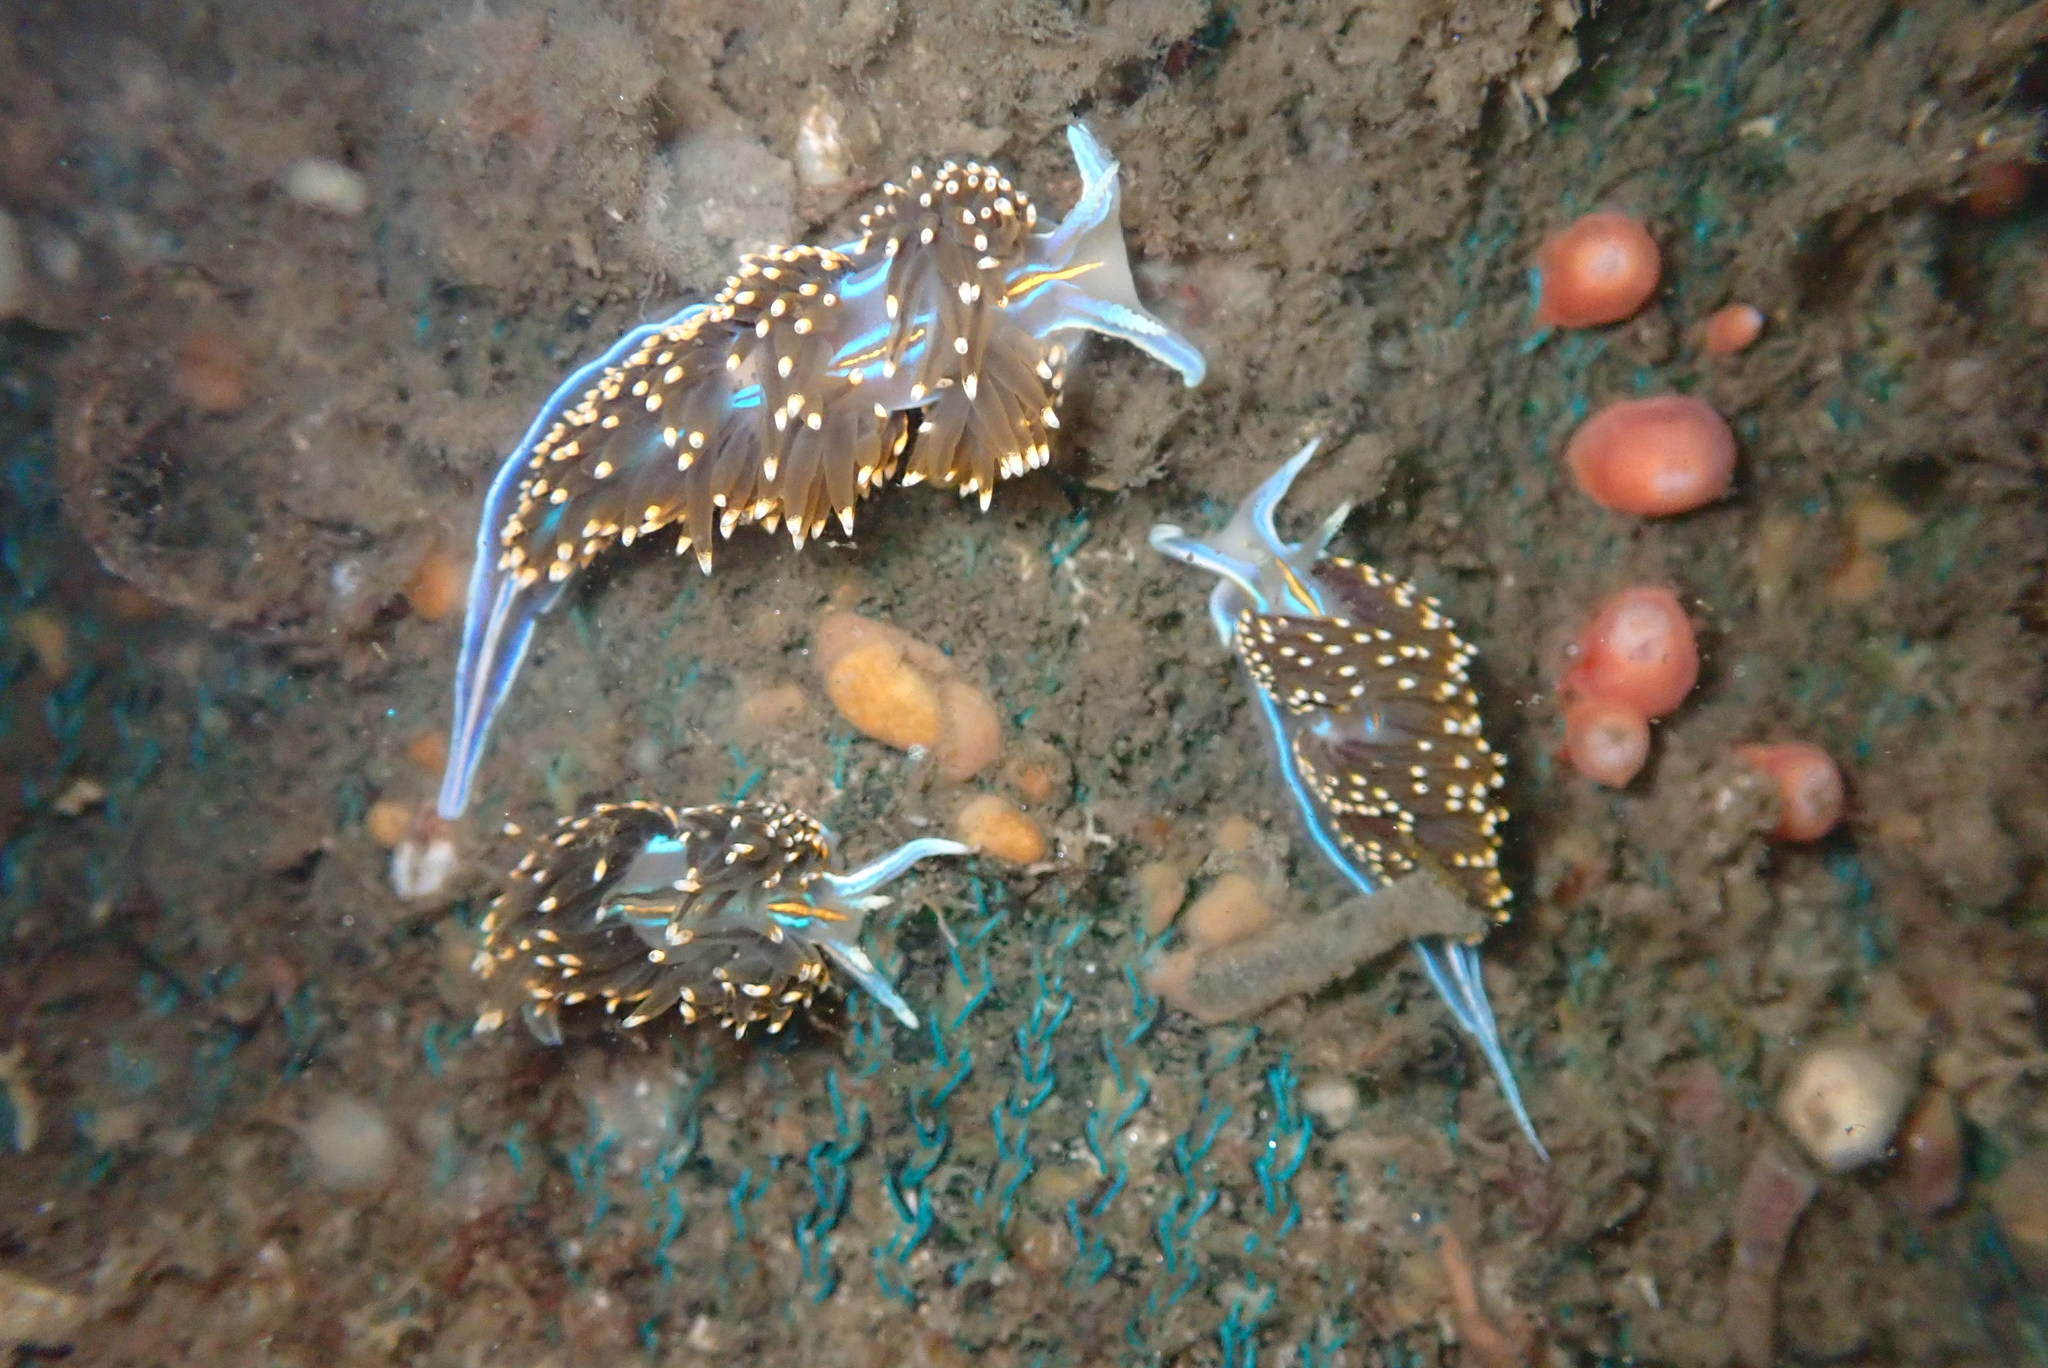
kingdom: Animalia
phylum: Mollusca
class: Gastropoda
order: Nudibranchia
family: Myrrhinidae
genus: Hermissenda
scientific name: Hermissenda opalescens
